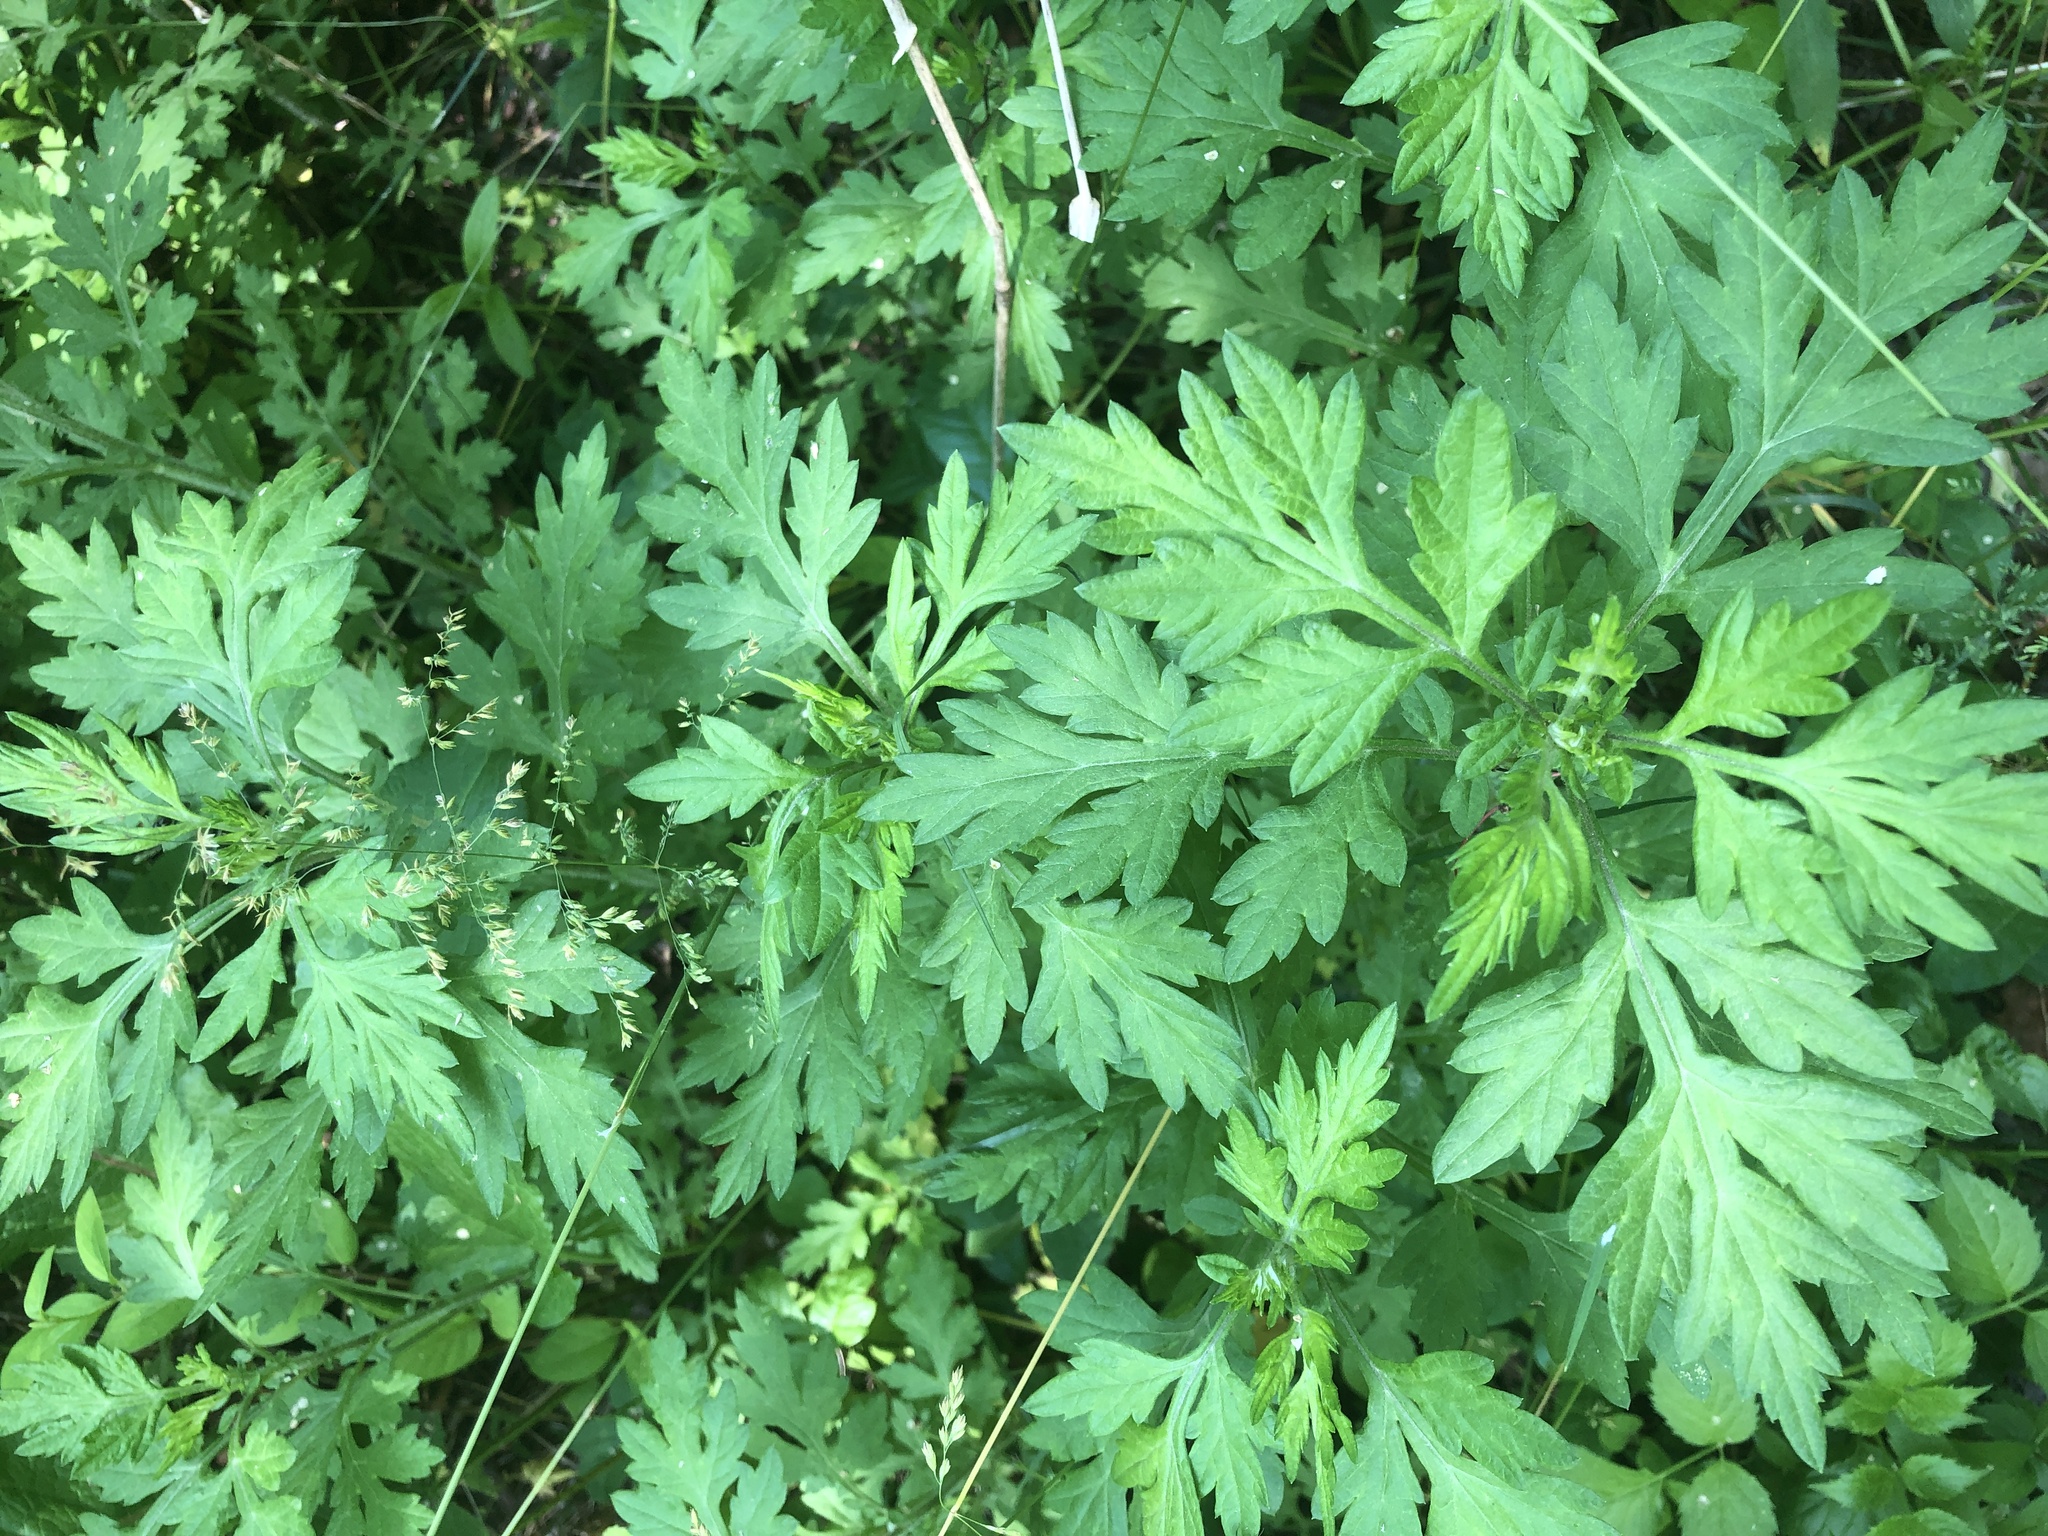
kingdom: Plantae
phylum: Tracheophyta
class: Magnoliopsida
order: Asterales
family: Asteraceae
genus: Artemisia
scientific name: Artemisia vulgaris
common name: Mugwort
